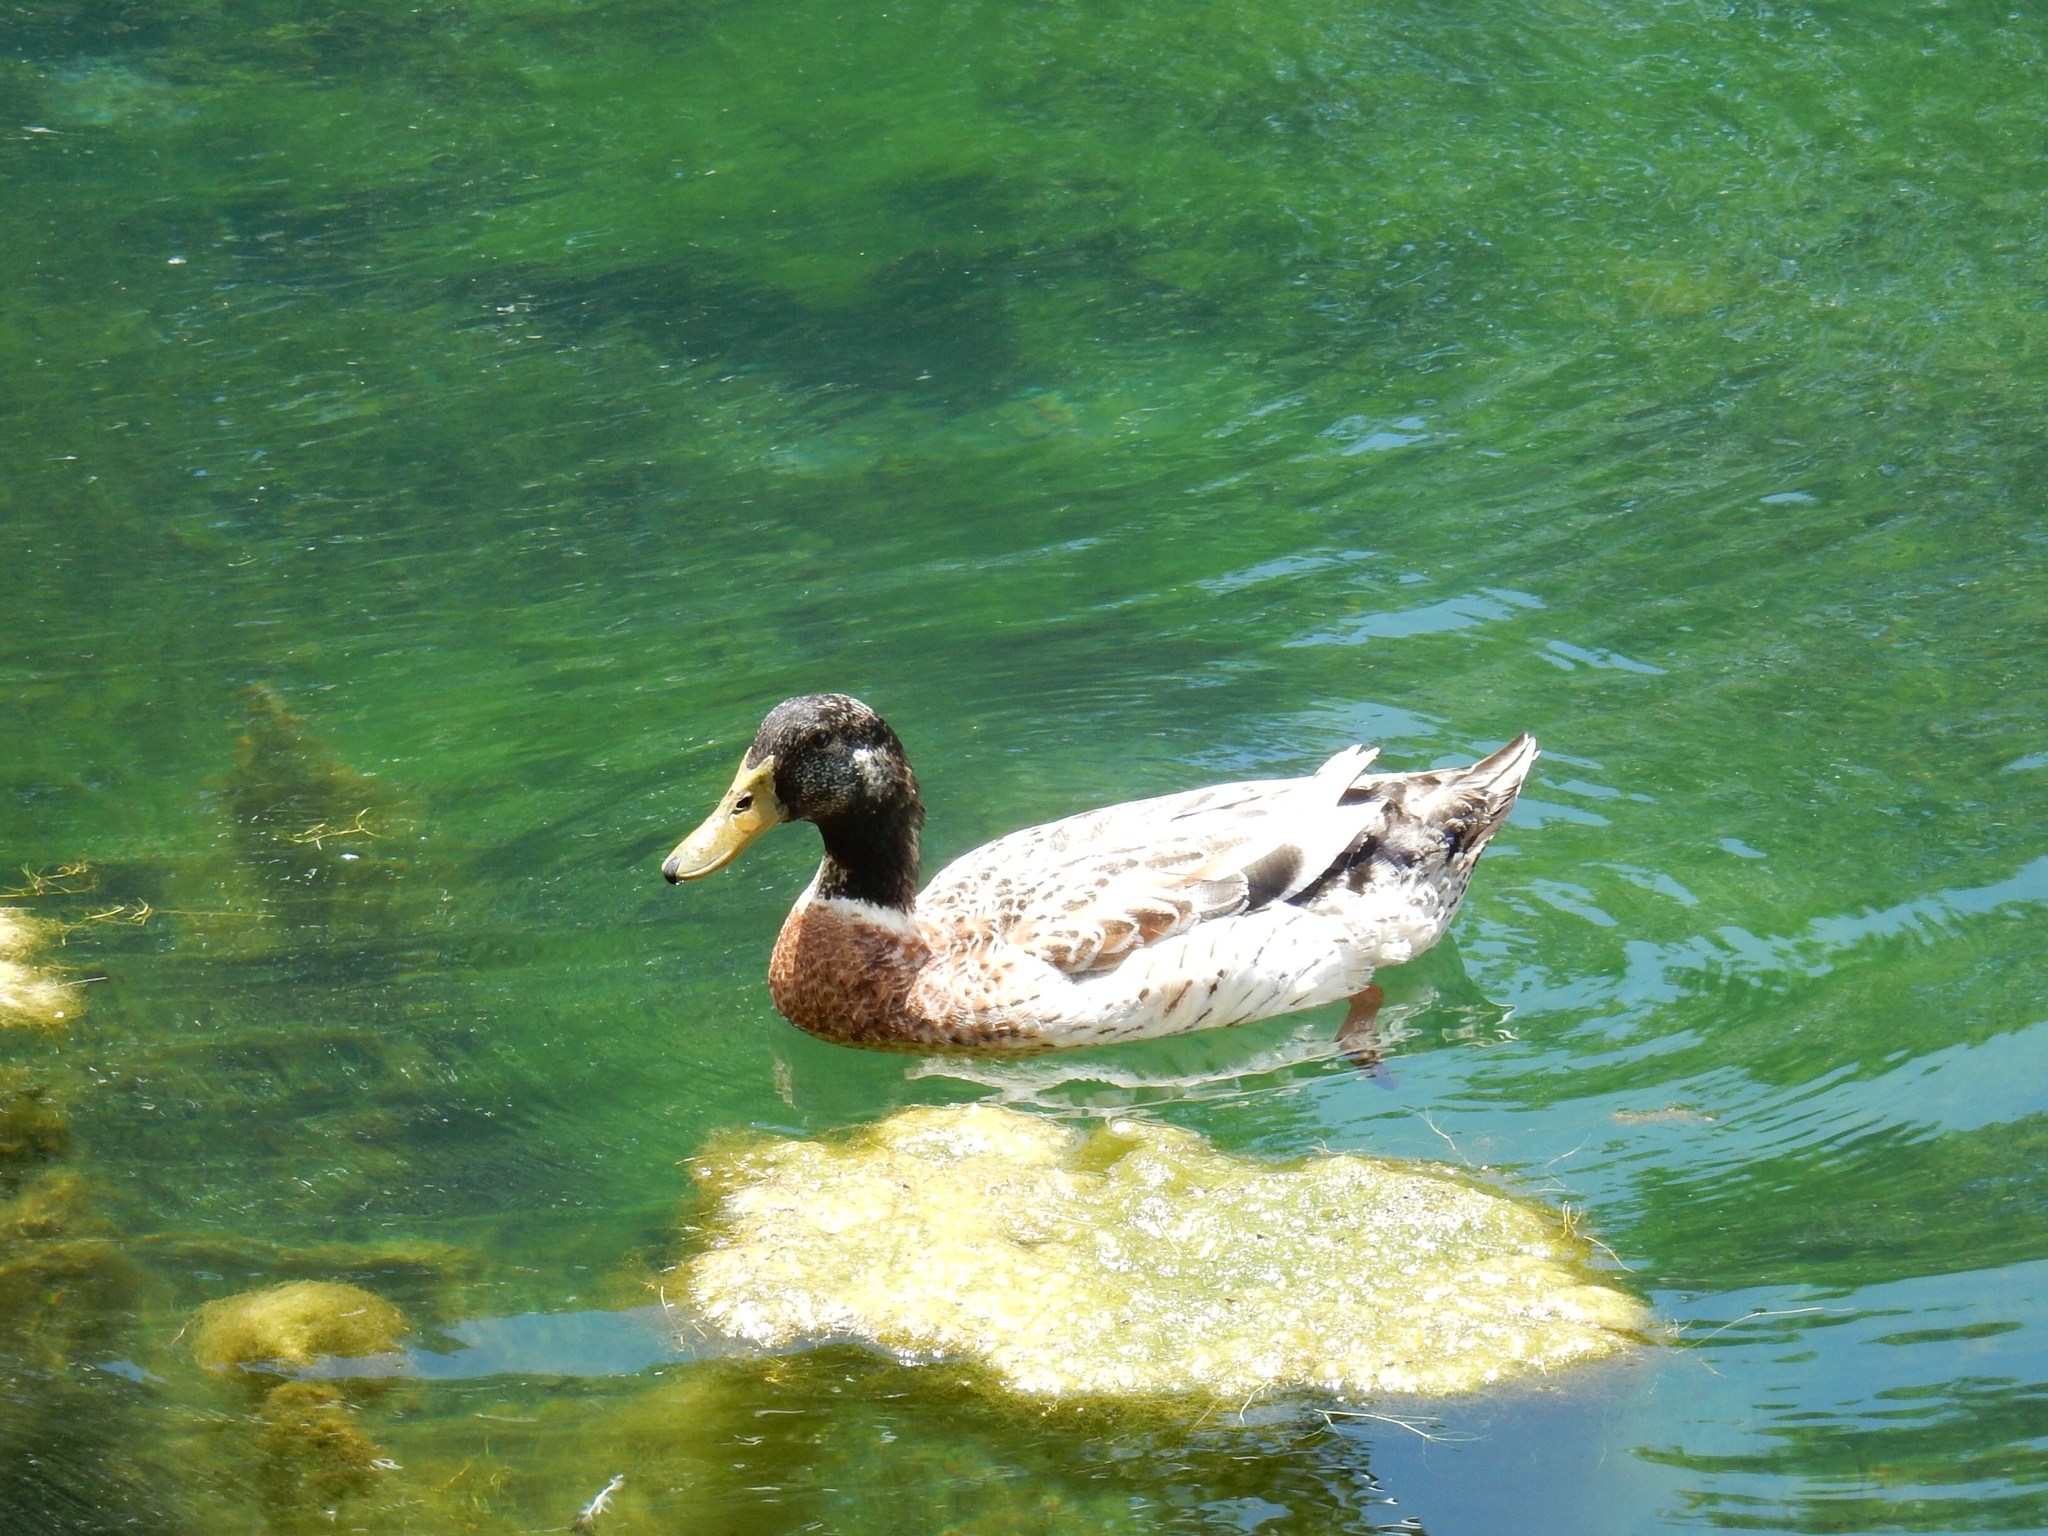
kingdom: Animalia
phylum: Chordata
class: Aves
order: Anseriformes
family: Anatidae
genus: Anas
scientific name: Anas platyrhynchos
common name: Mallard
